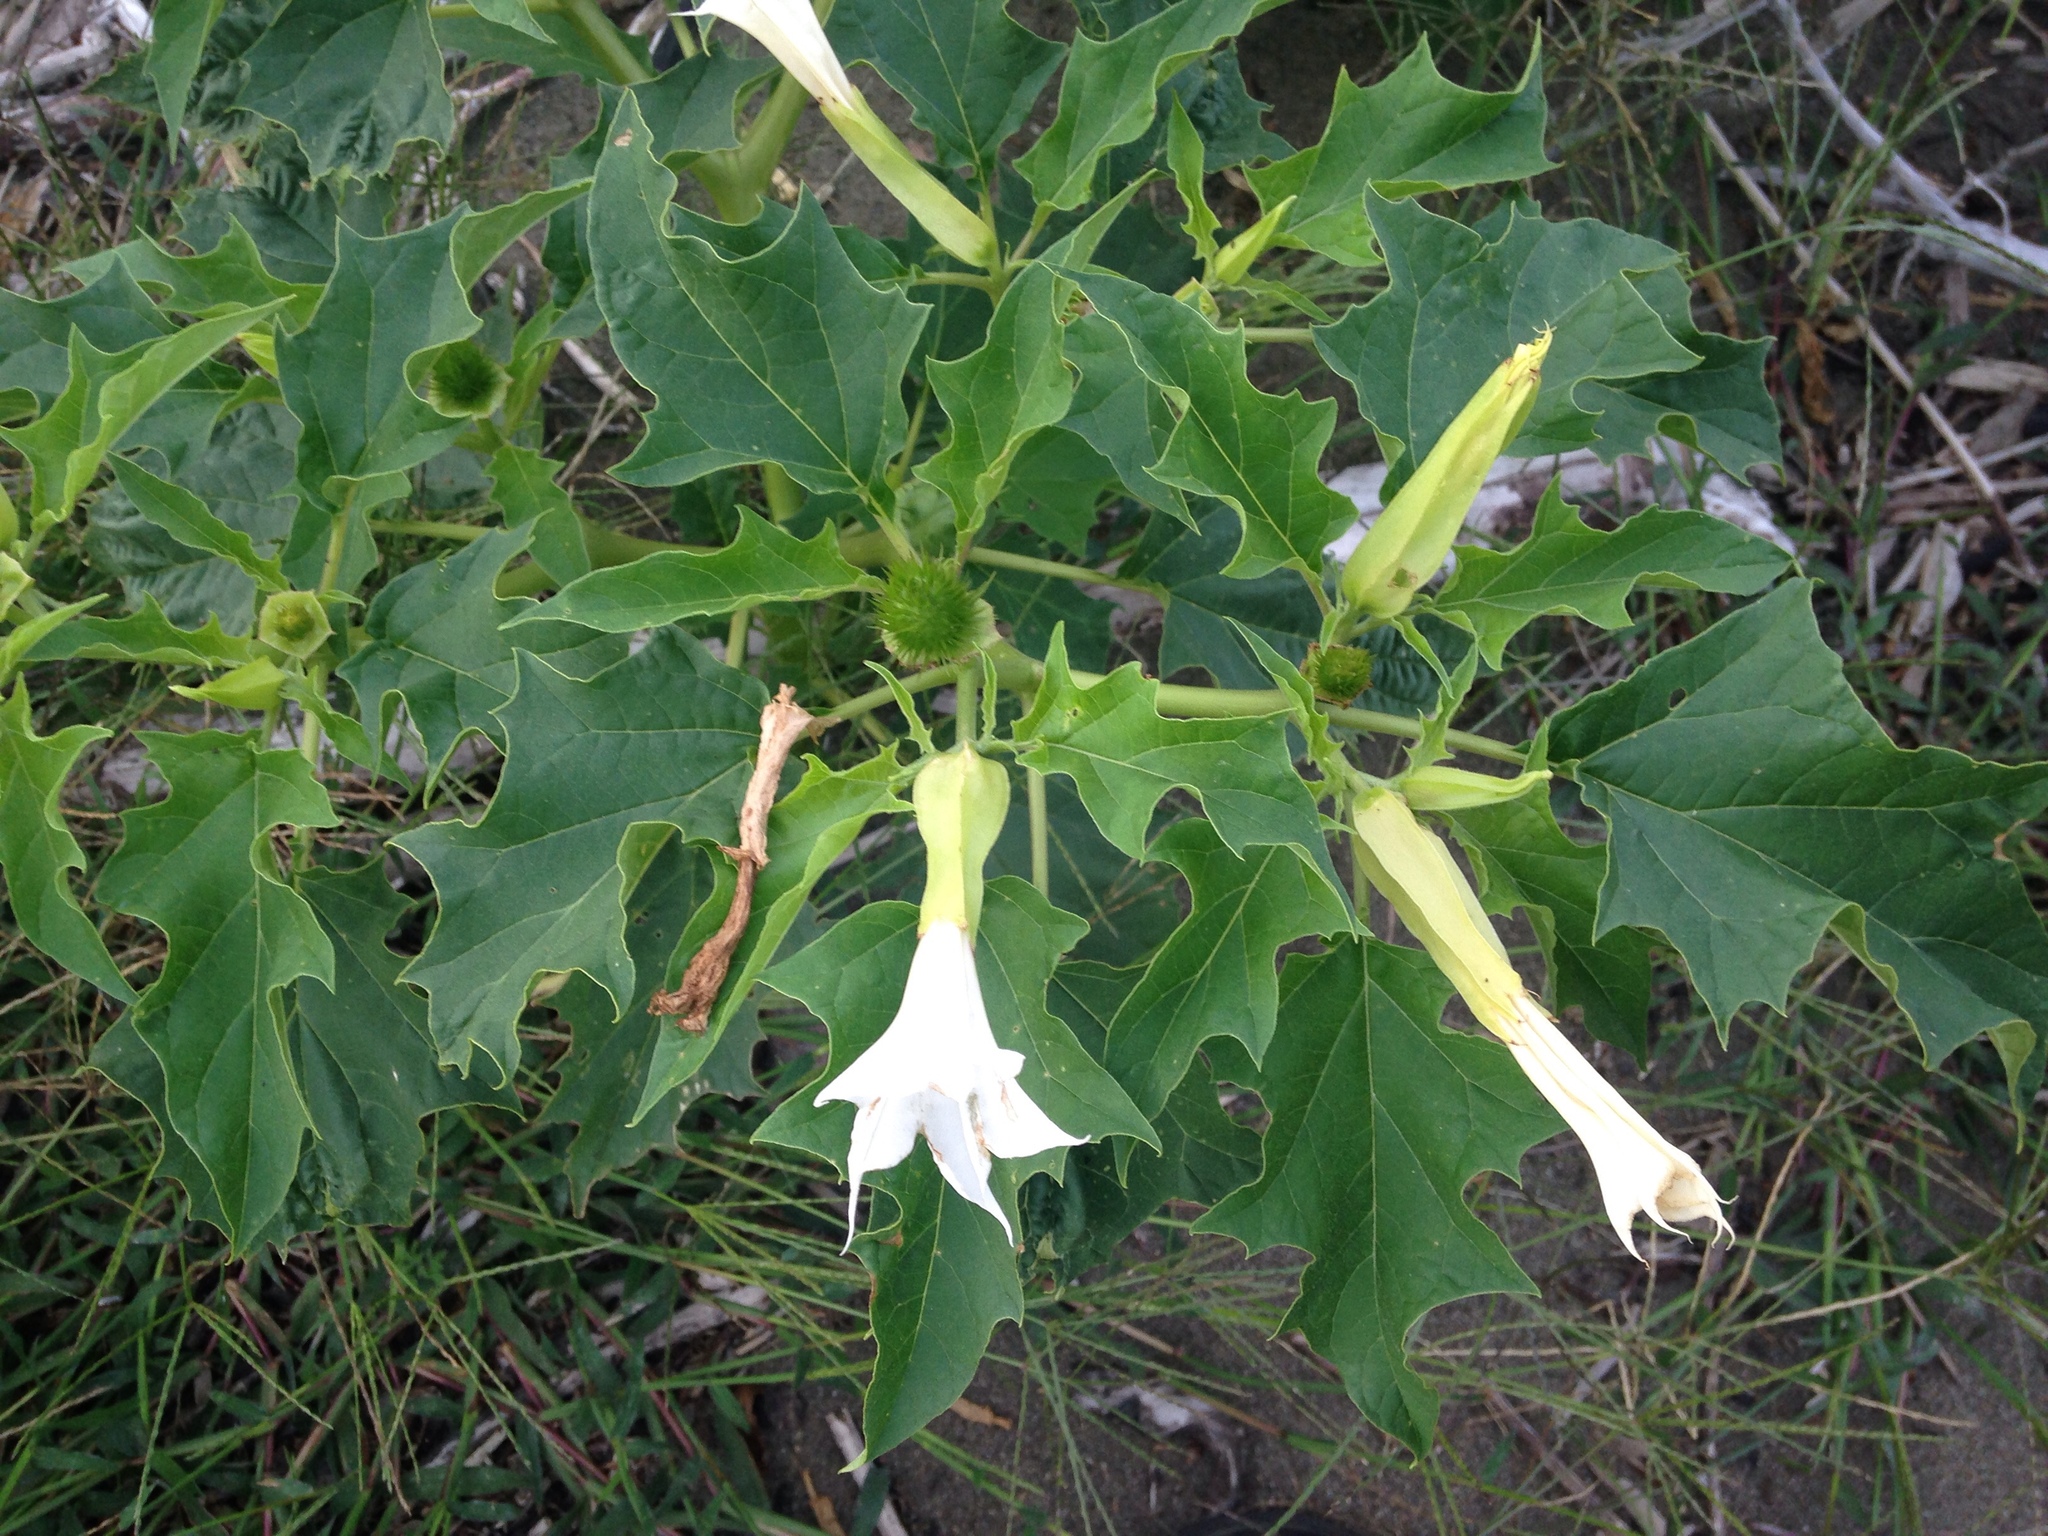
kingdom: Plantae
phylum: Tracheophyta
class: Magnoliopsida
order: Solanales
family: Solanaceae
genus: Datura
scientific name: Datura stramonium
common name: Thorn-apple
